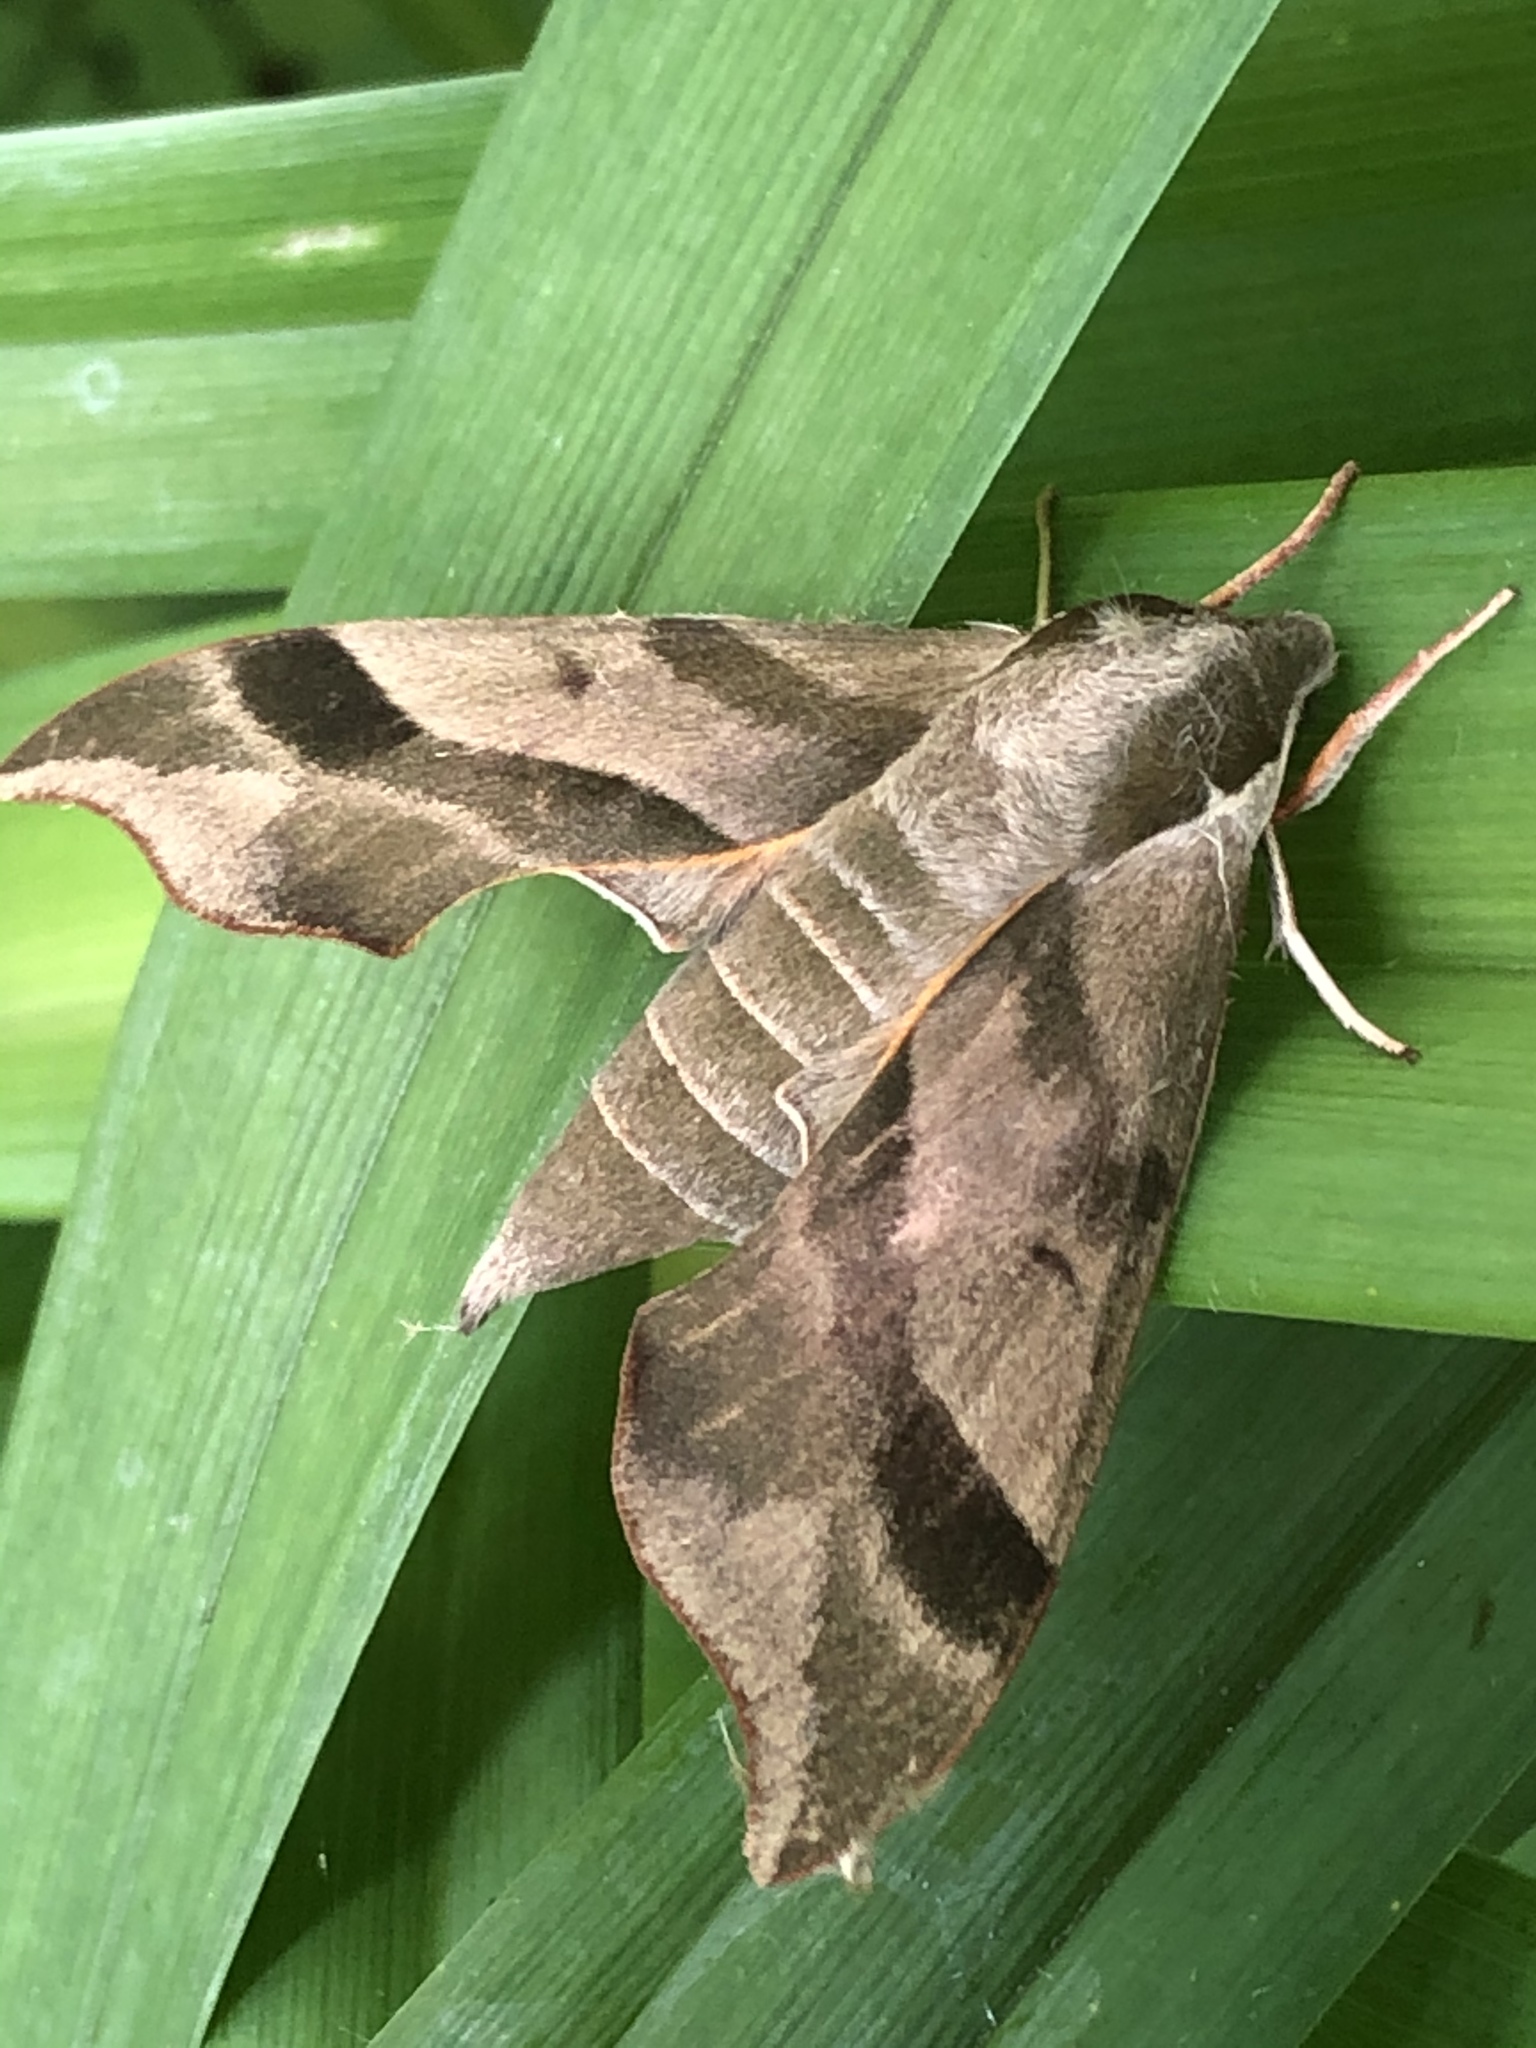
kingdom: Animalia
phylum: Arthropoda
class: Insecta
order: Lepidoptera
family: Sphingidae
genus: Darapsa
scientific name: Darapsa myron
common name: Hog sphinx
